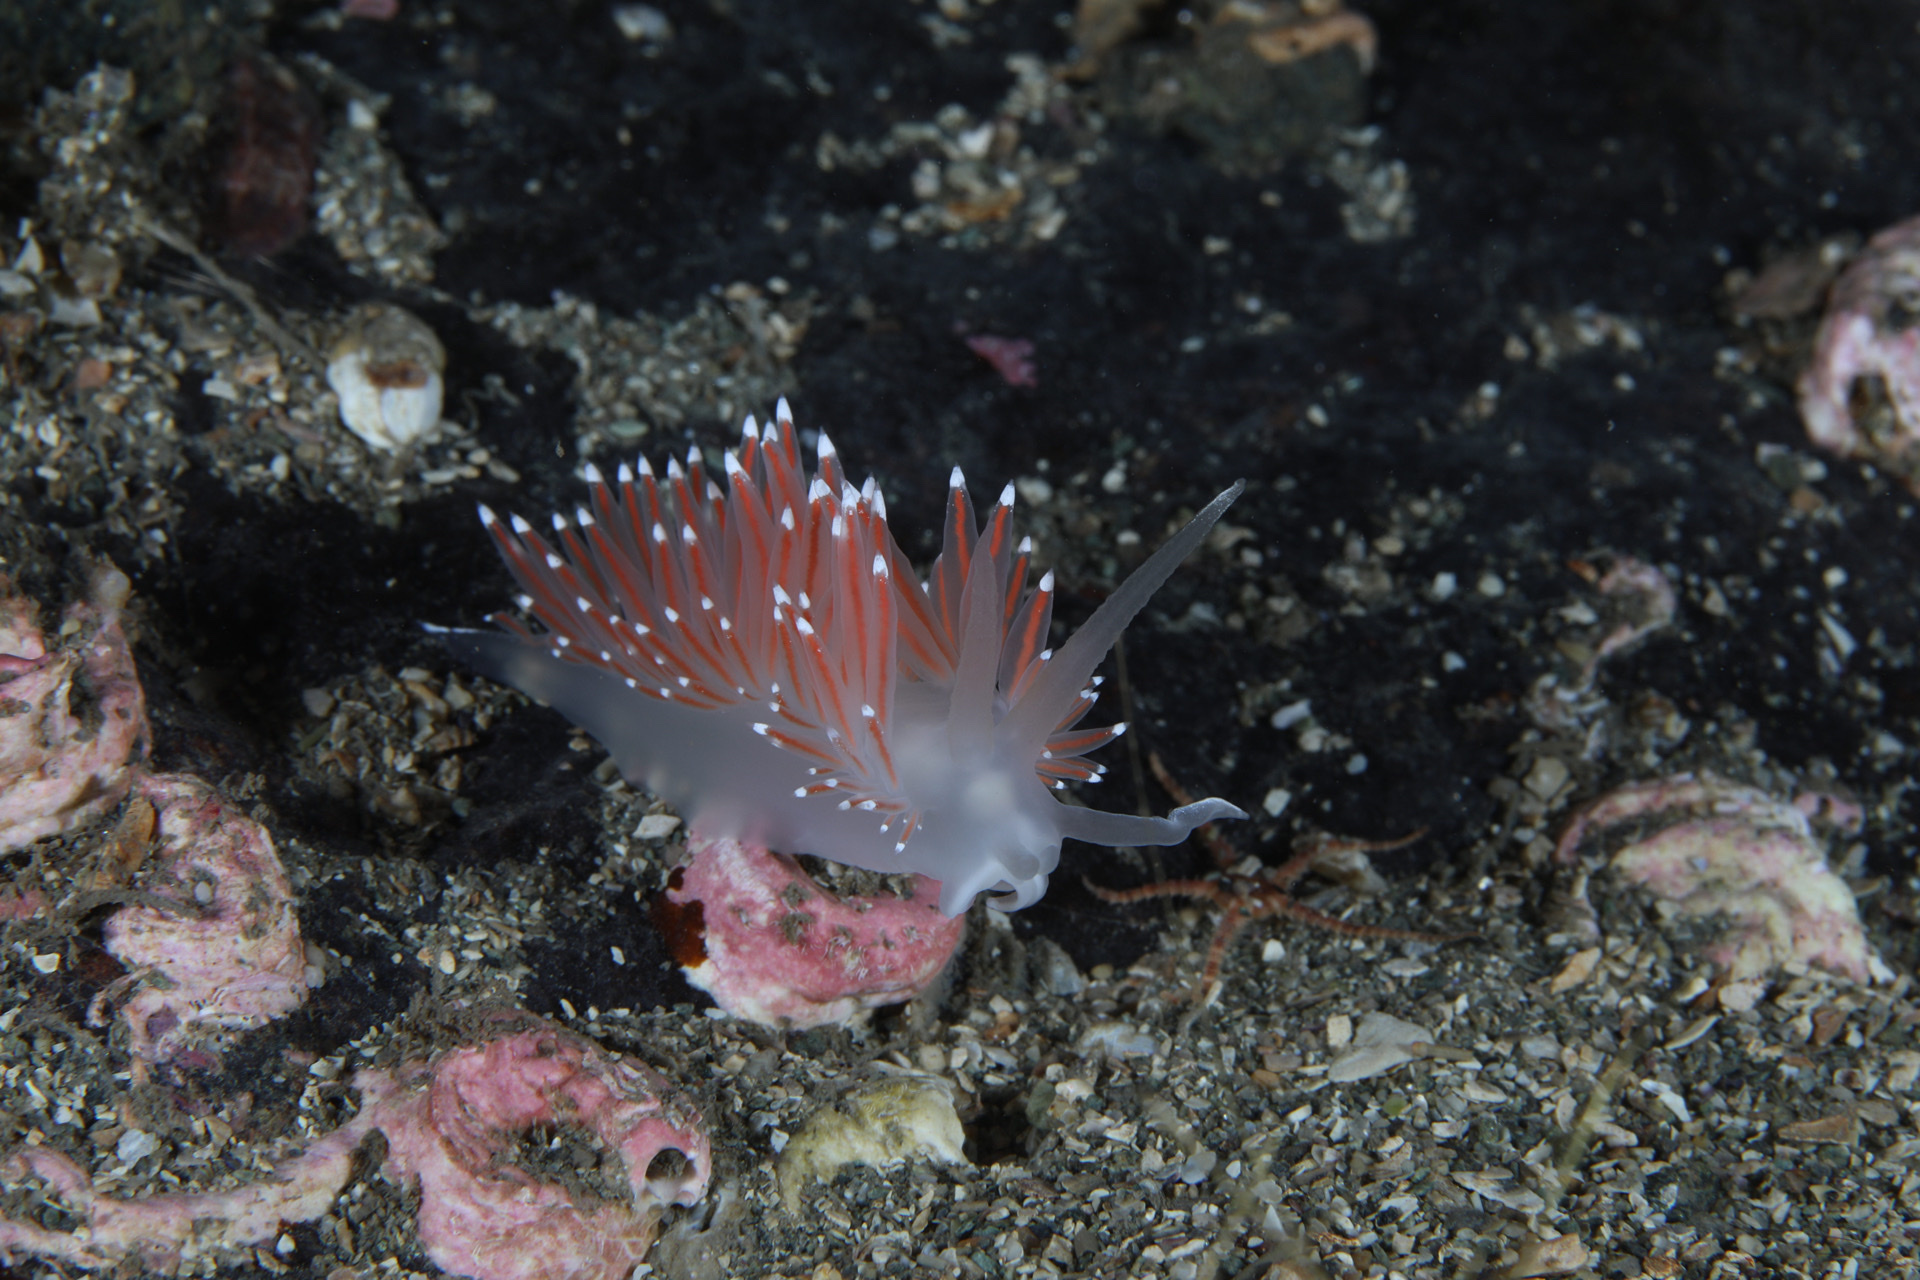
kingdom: Animalia
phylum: Mollusca
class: Gastropoda
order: Nudibranchia
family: Coryphellidae
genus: Coryphella
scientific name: Coryphella browni
